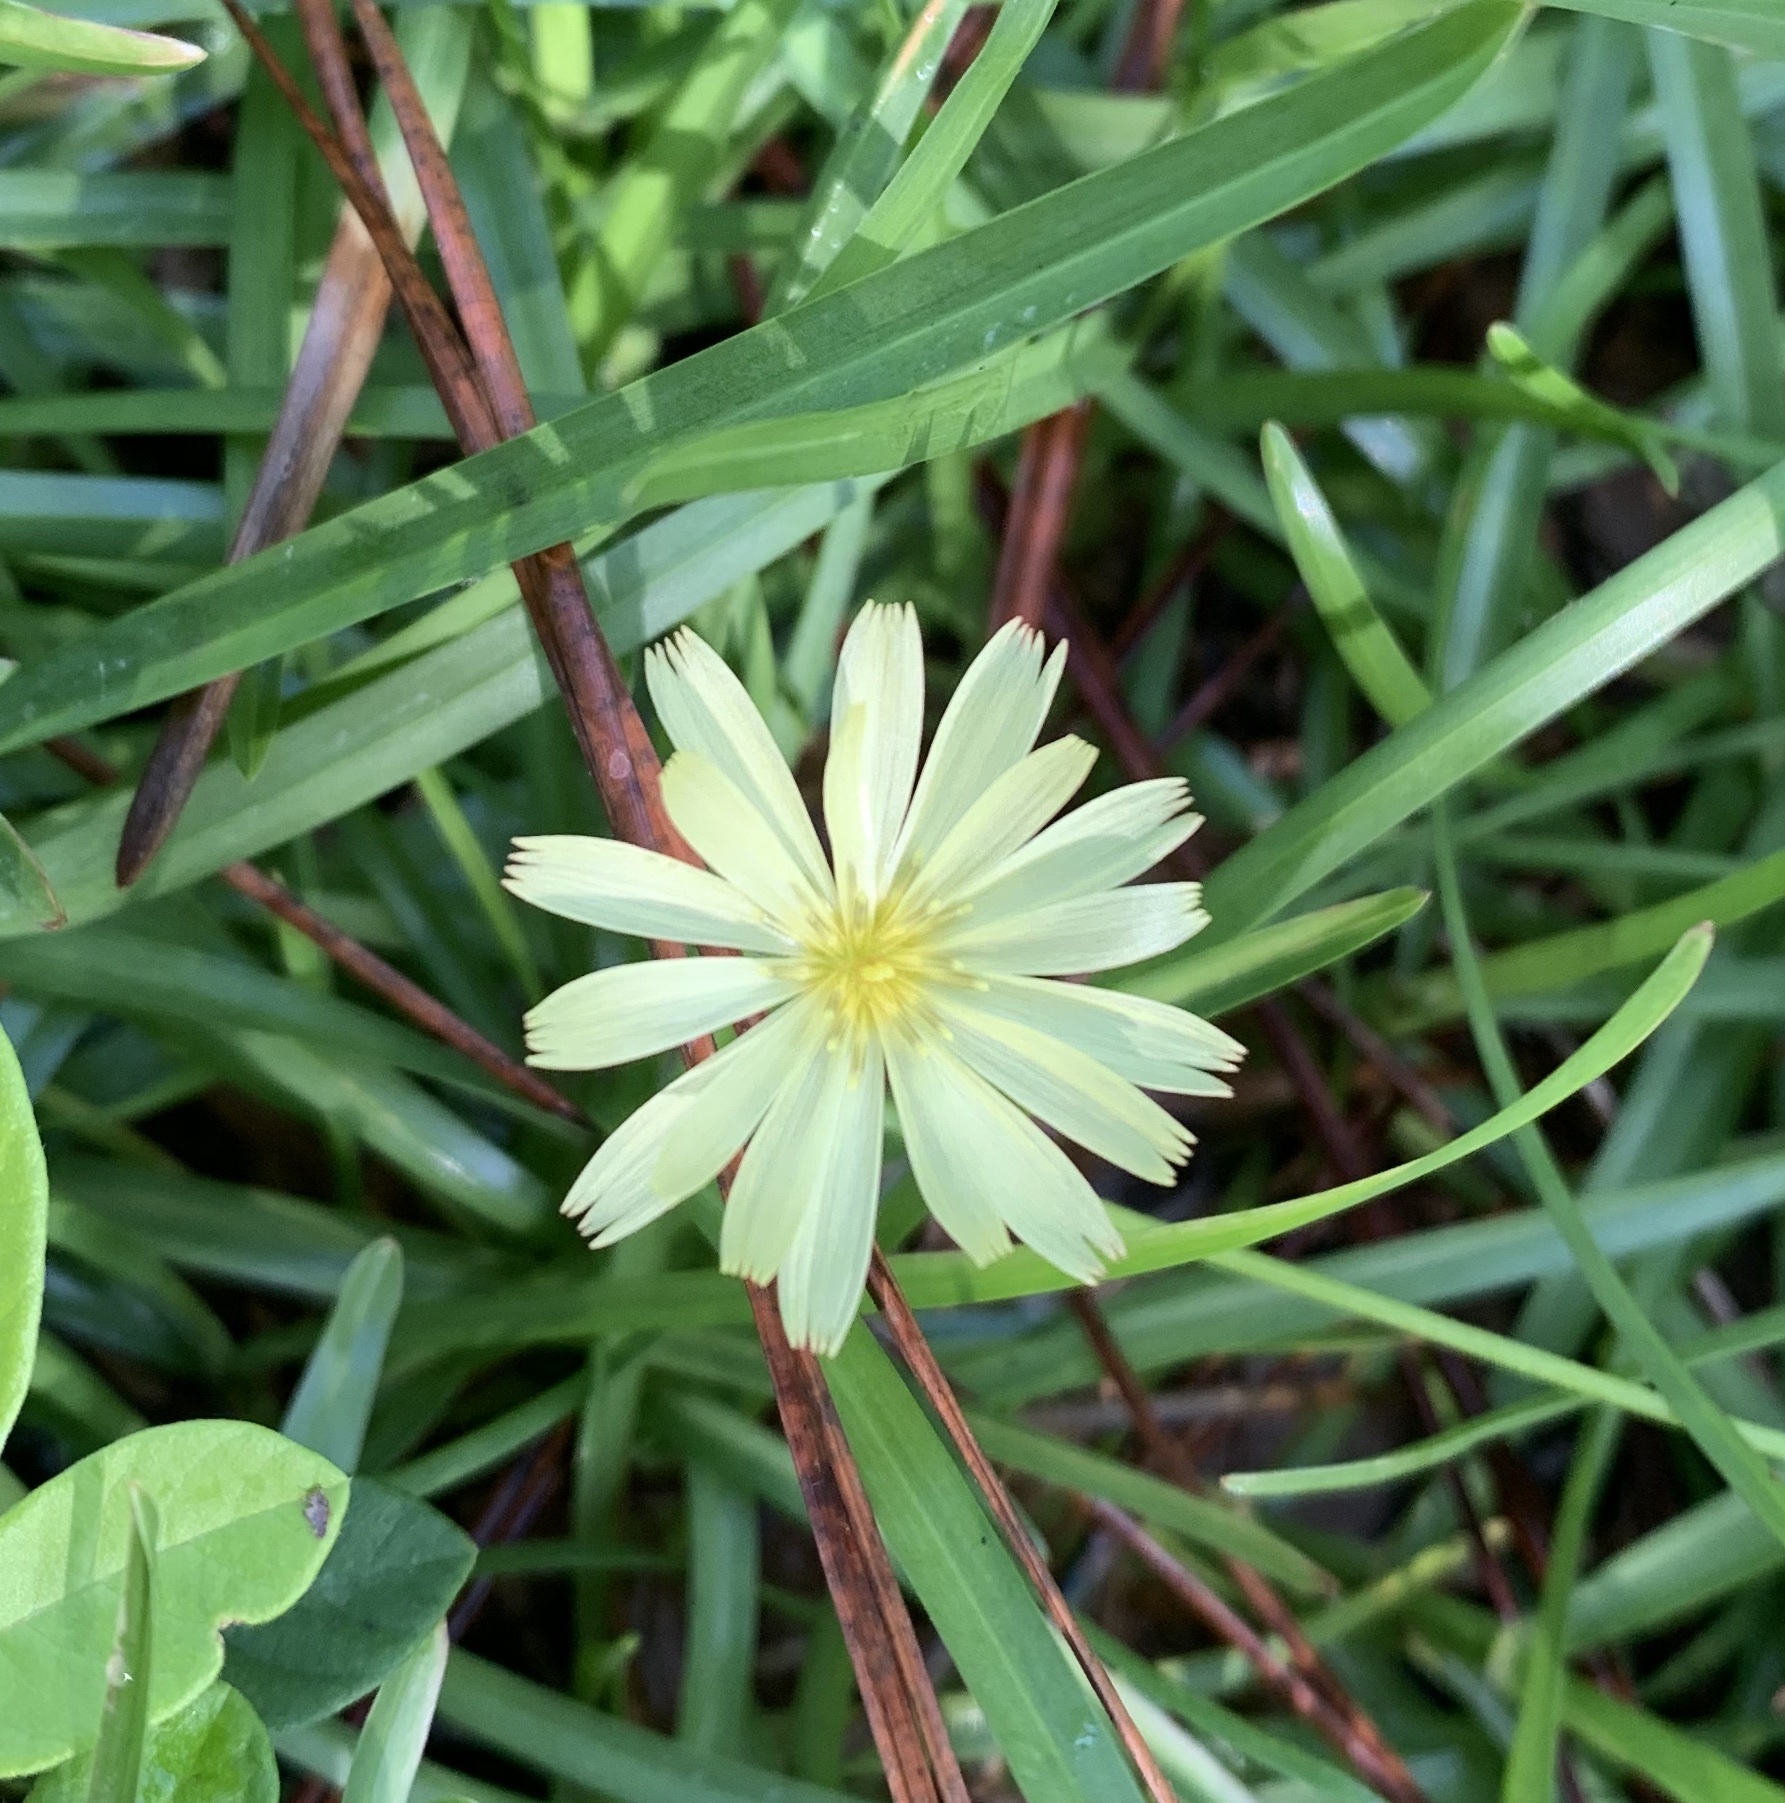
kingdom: Plantae
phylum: Tracheophyta
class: Magnoliopsida
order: Asterales
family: Asteraceae
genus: Pyrrhopappus
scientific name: Pyrrhopappus carolinianus
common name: Carolina desert-chicory
